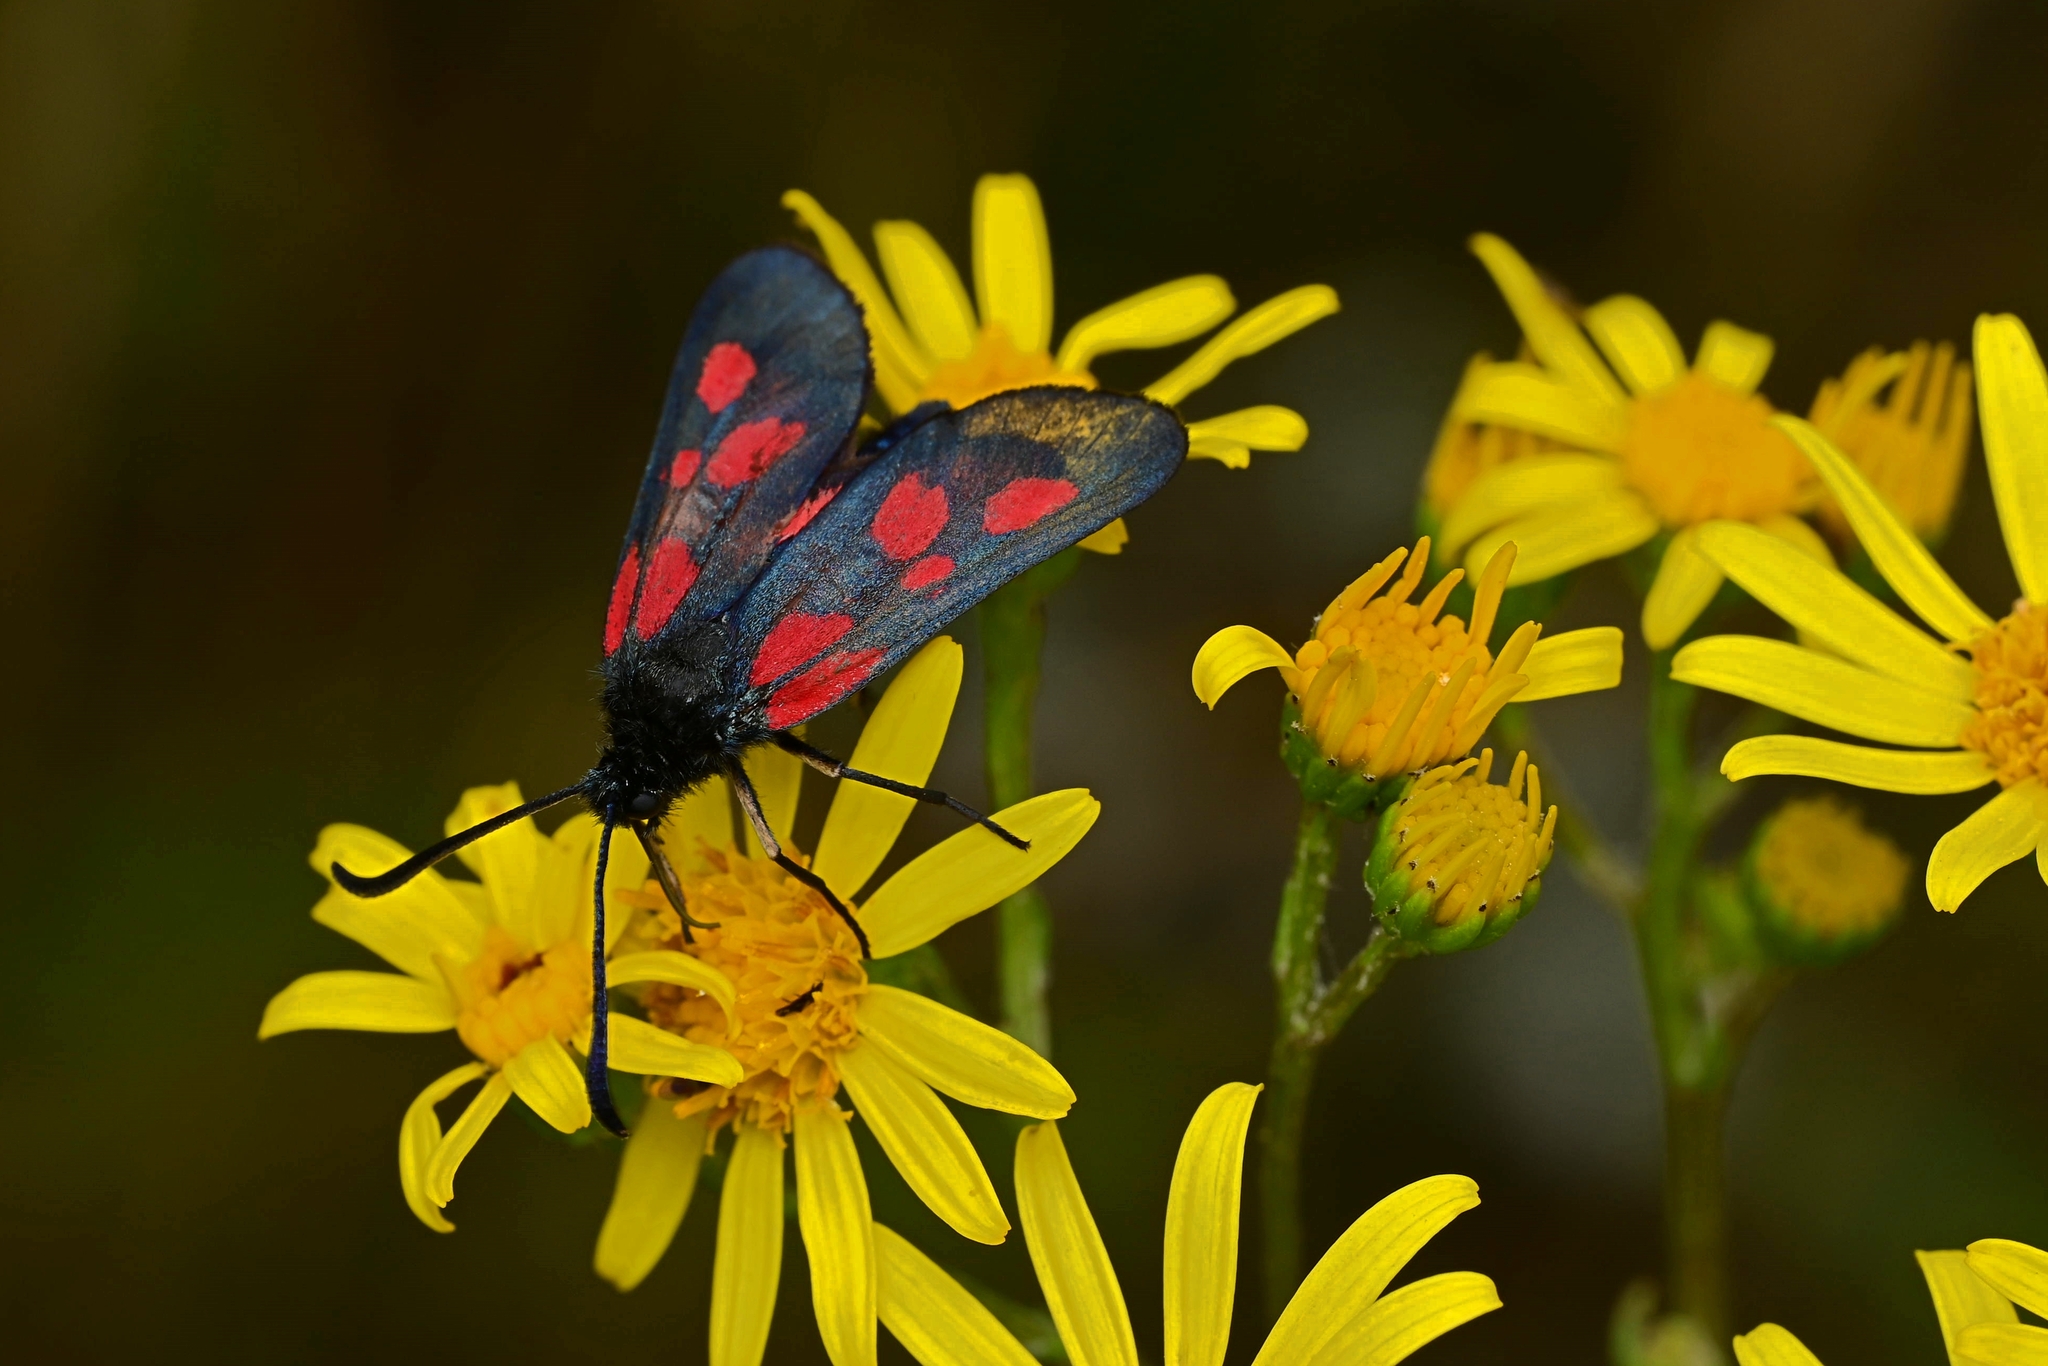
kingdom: Animalia
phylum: Arthropoda
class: Insecta
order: Lepidoptera
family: Zygaenidae
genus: Zygaena
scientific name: Zygaena viciae
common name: New forest burnet
